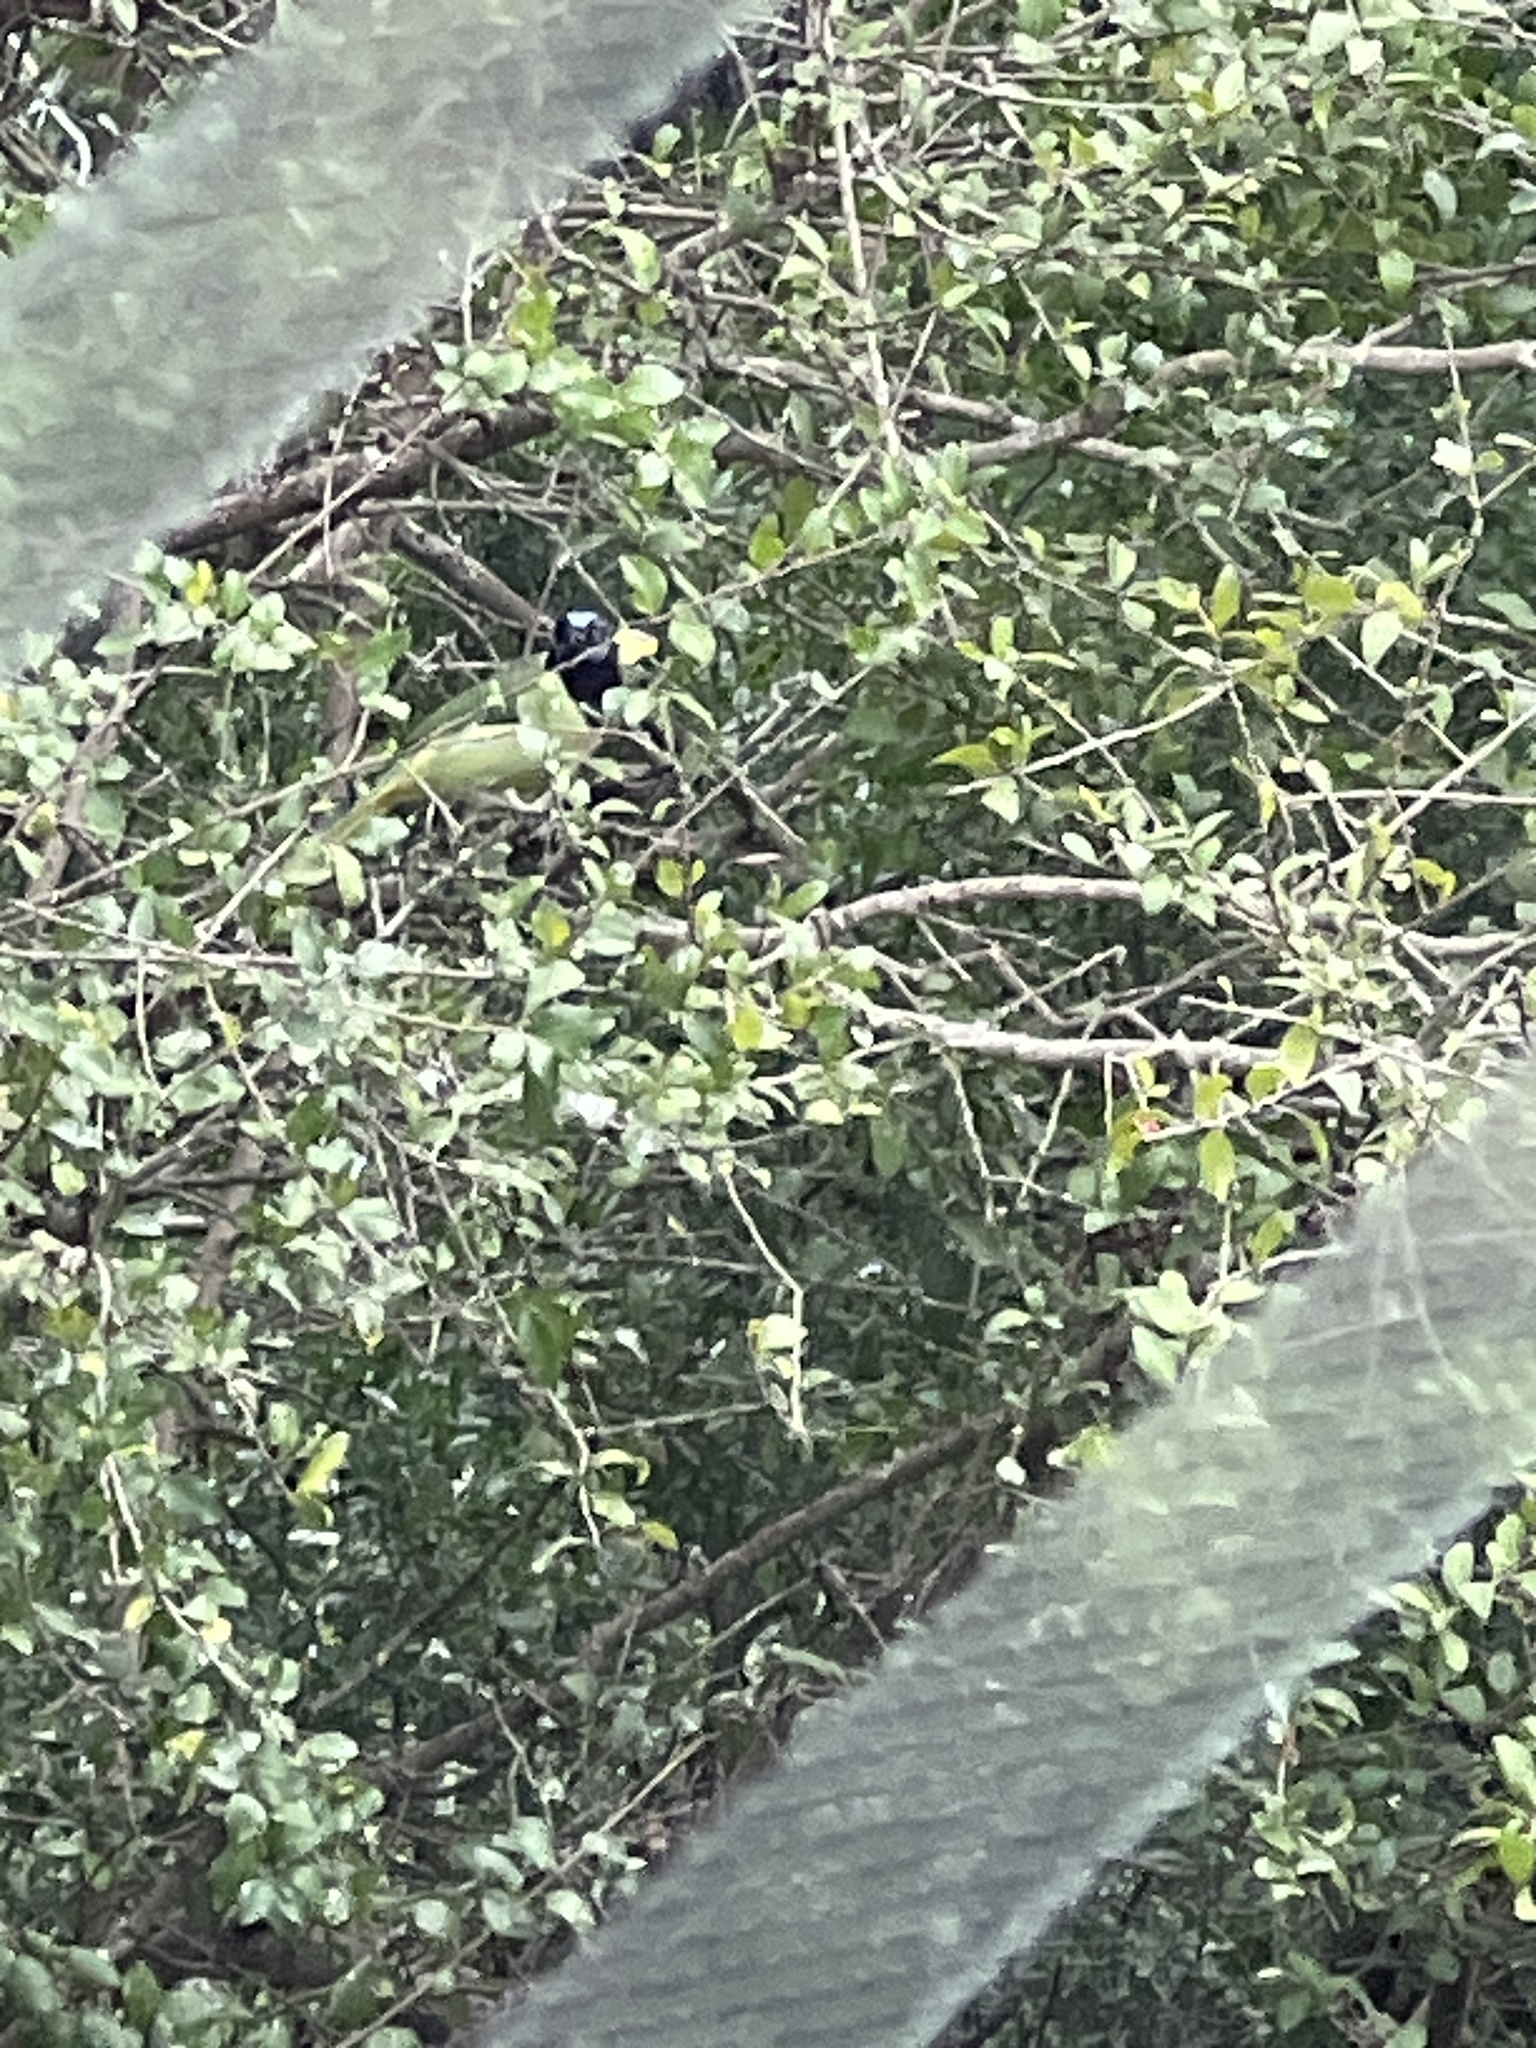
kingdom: Animalia
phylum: Chordata
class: Aves
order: Passeriformes
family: Corvidae
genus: Cyanocorax
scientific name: Cyanocorax yncas
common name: Green jay
